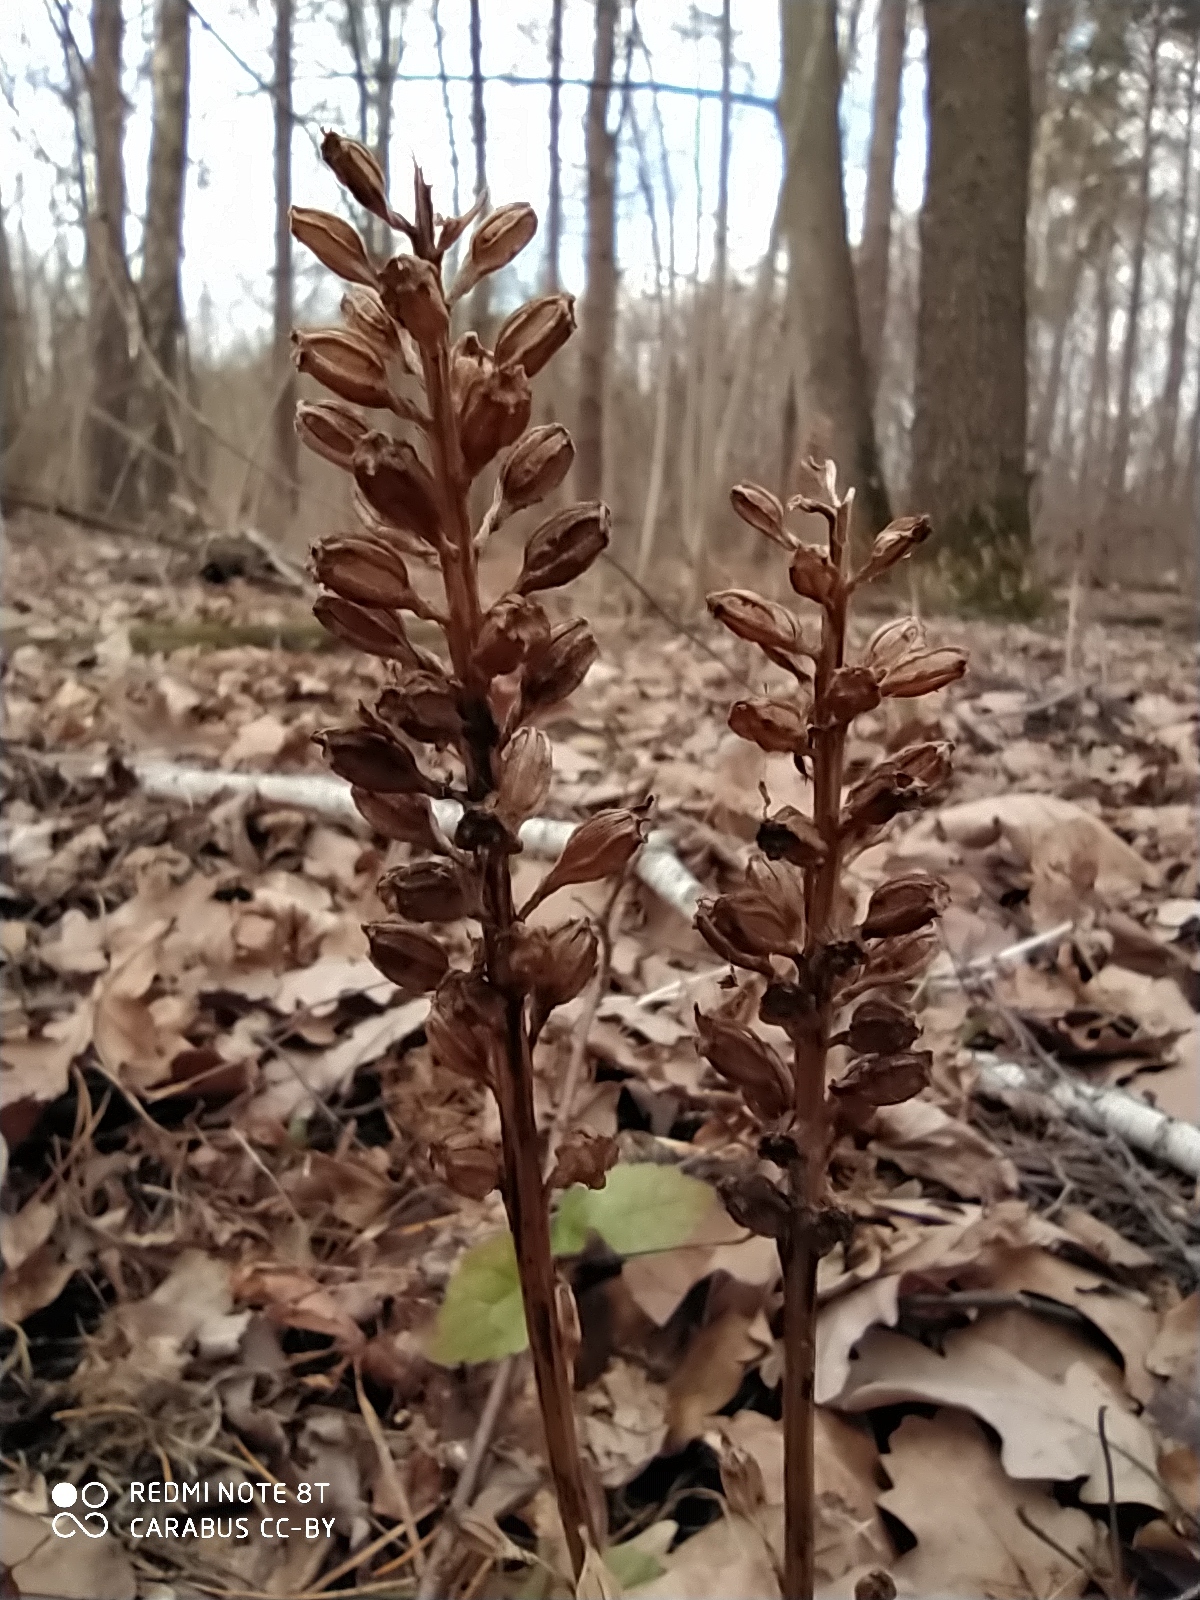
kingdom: Plantae
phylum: Tracheophyta
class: Liliopsida
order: Asparagales
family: Orchidaceae
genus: Neottia
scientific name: Neottia nidus-avis
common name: Bird's-nest orchid
